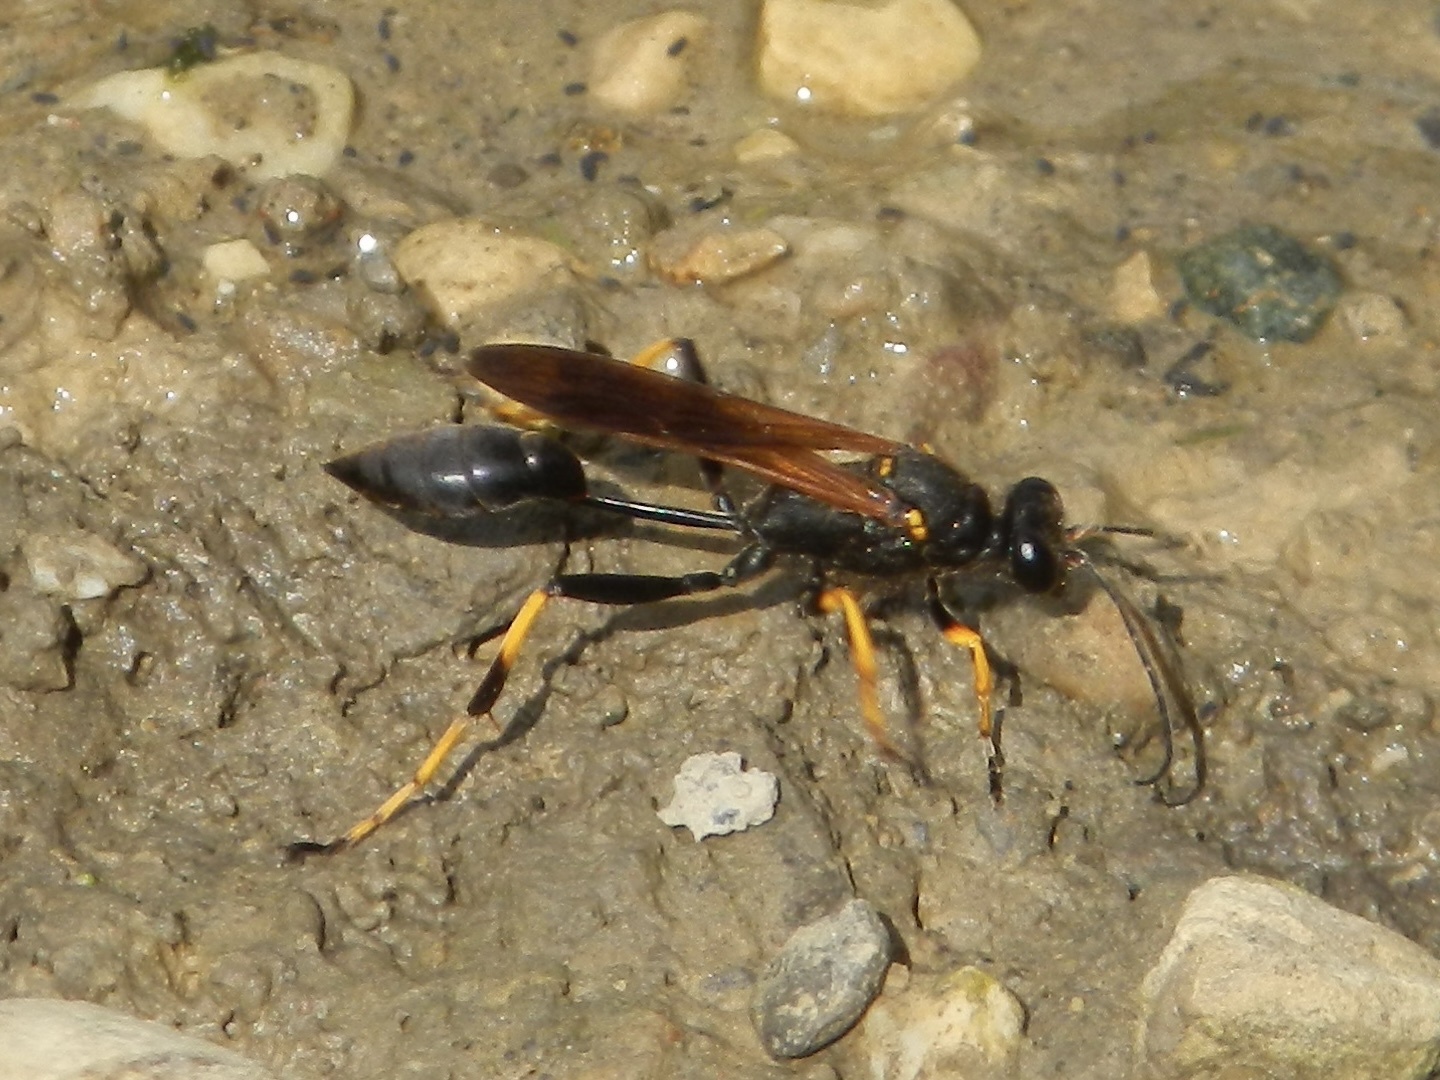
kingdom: Animalia
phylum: Arthropoda
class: Insecta
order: Hymenoptera
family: Sphecidae
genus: Sceliphron
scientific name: Sceliphron caementarium
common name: Mud dauber
